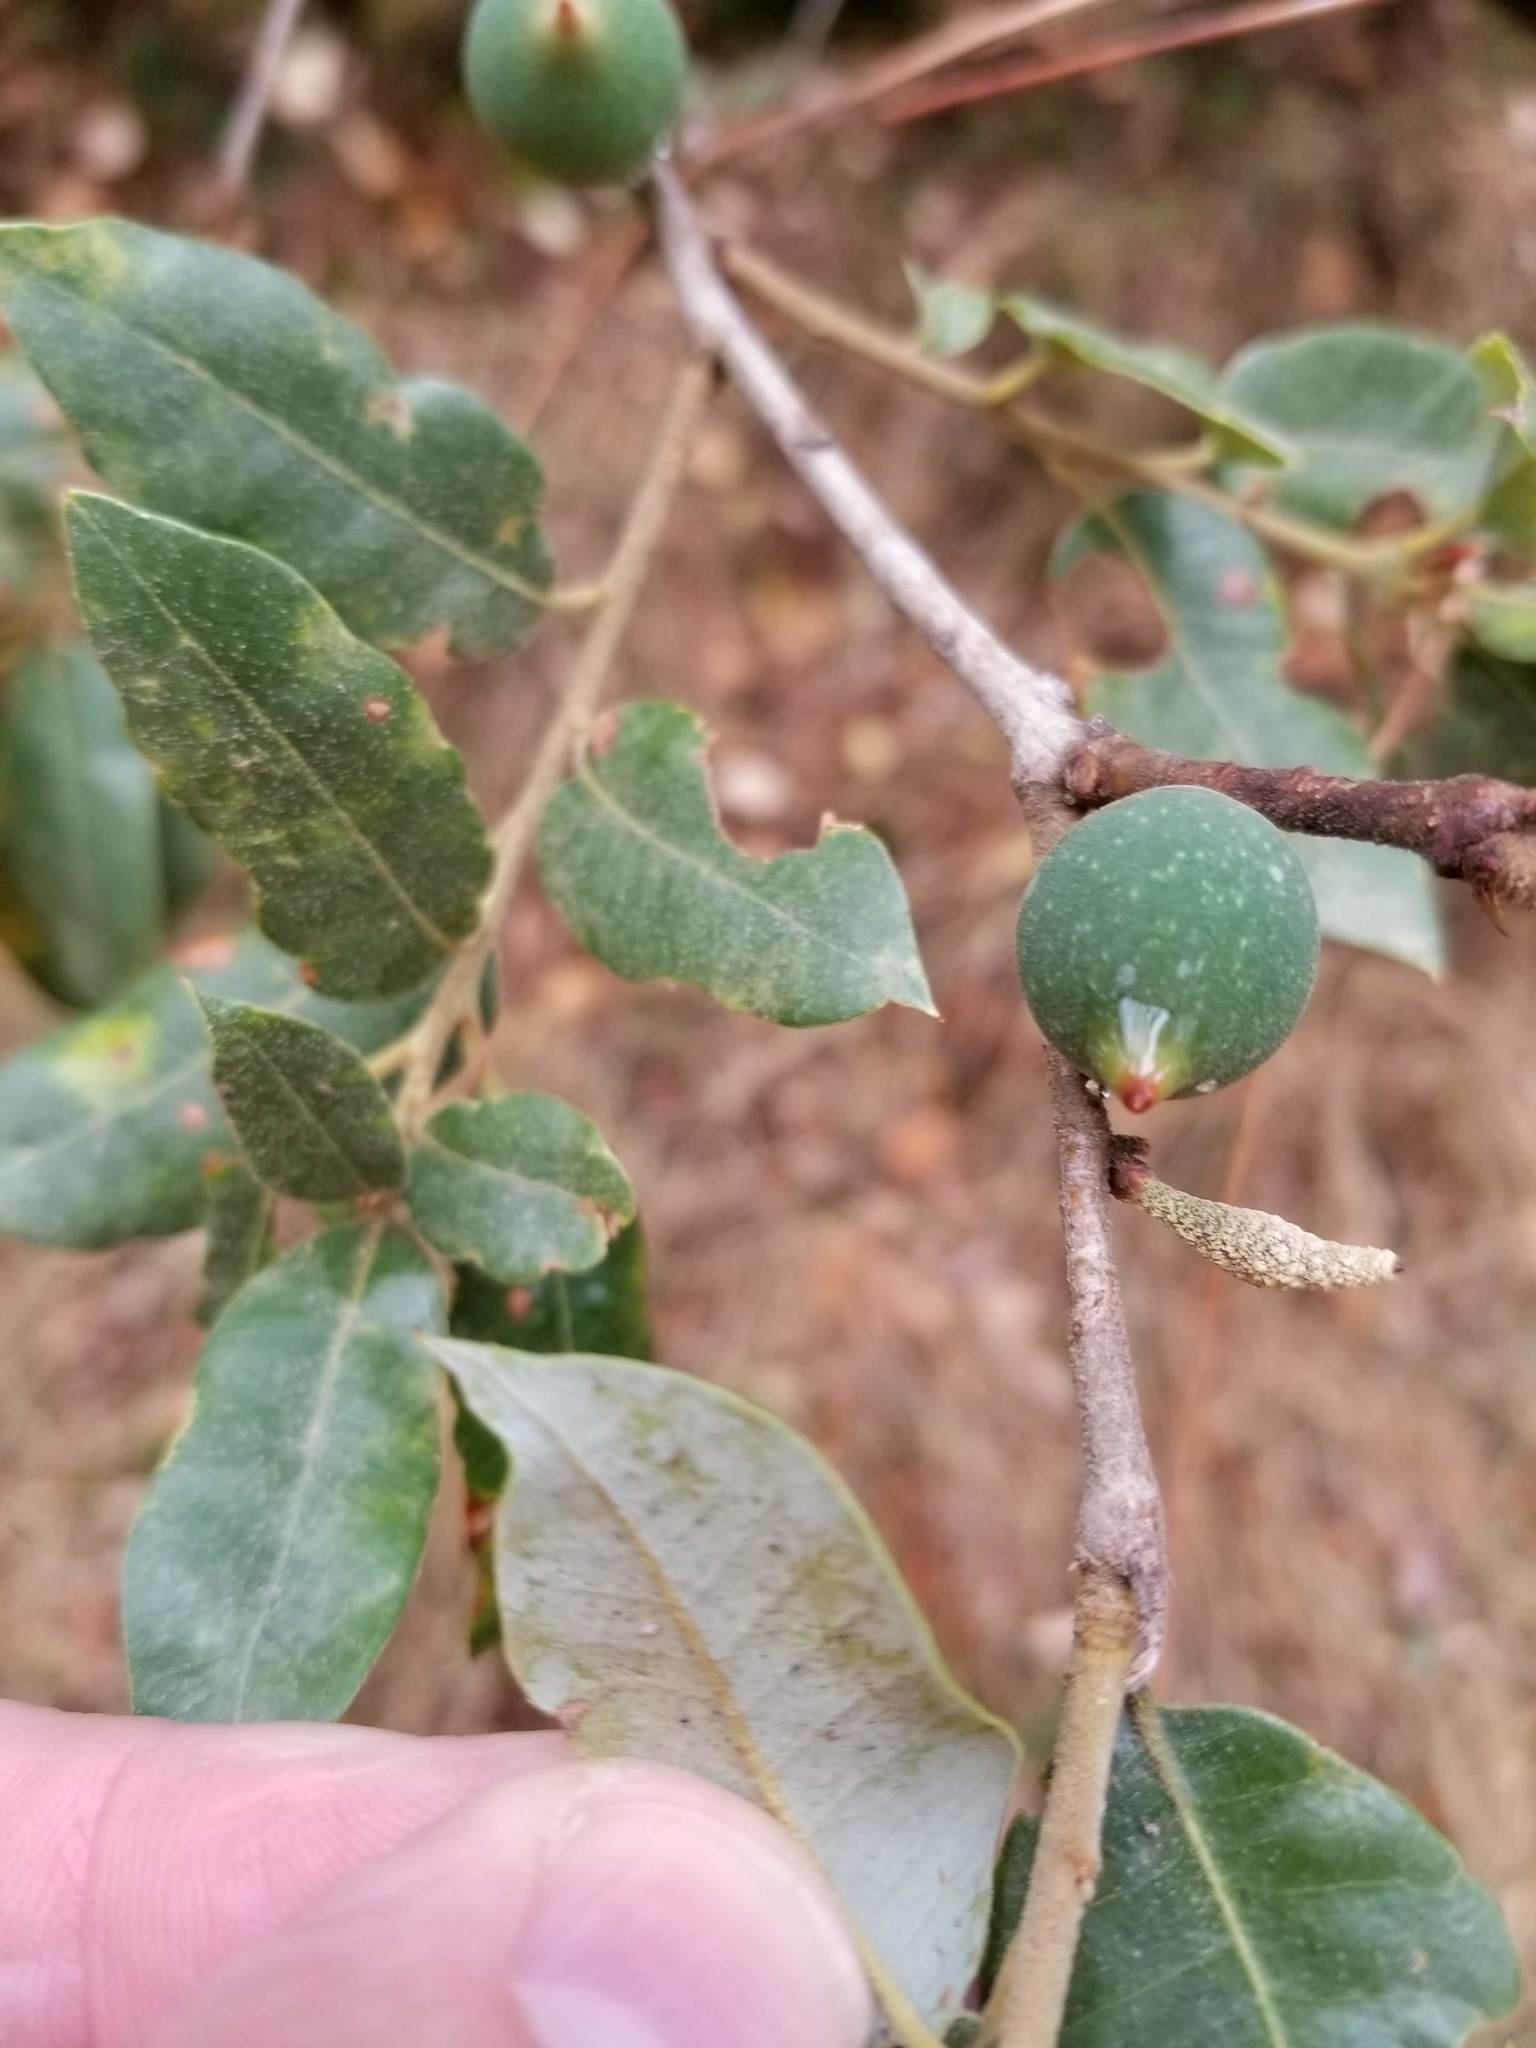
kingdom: Plantae
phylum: Tracheophyta
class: Magnoliopsida
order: Fagales
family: Fagaceae
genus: Quercus
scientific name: Quercus chrysolepis
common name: Canyon live oak
